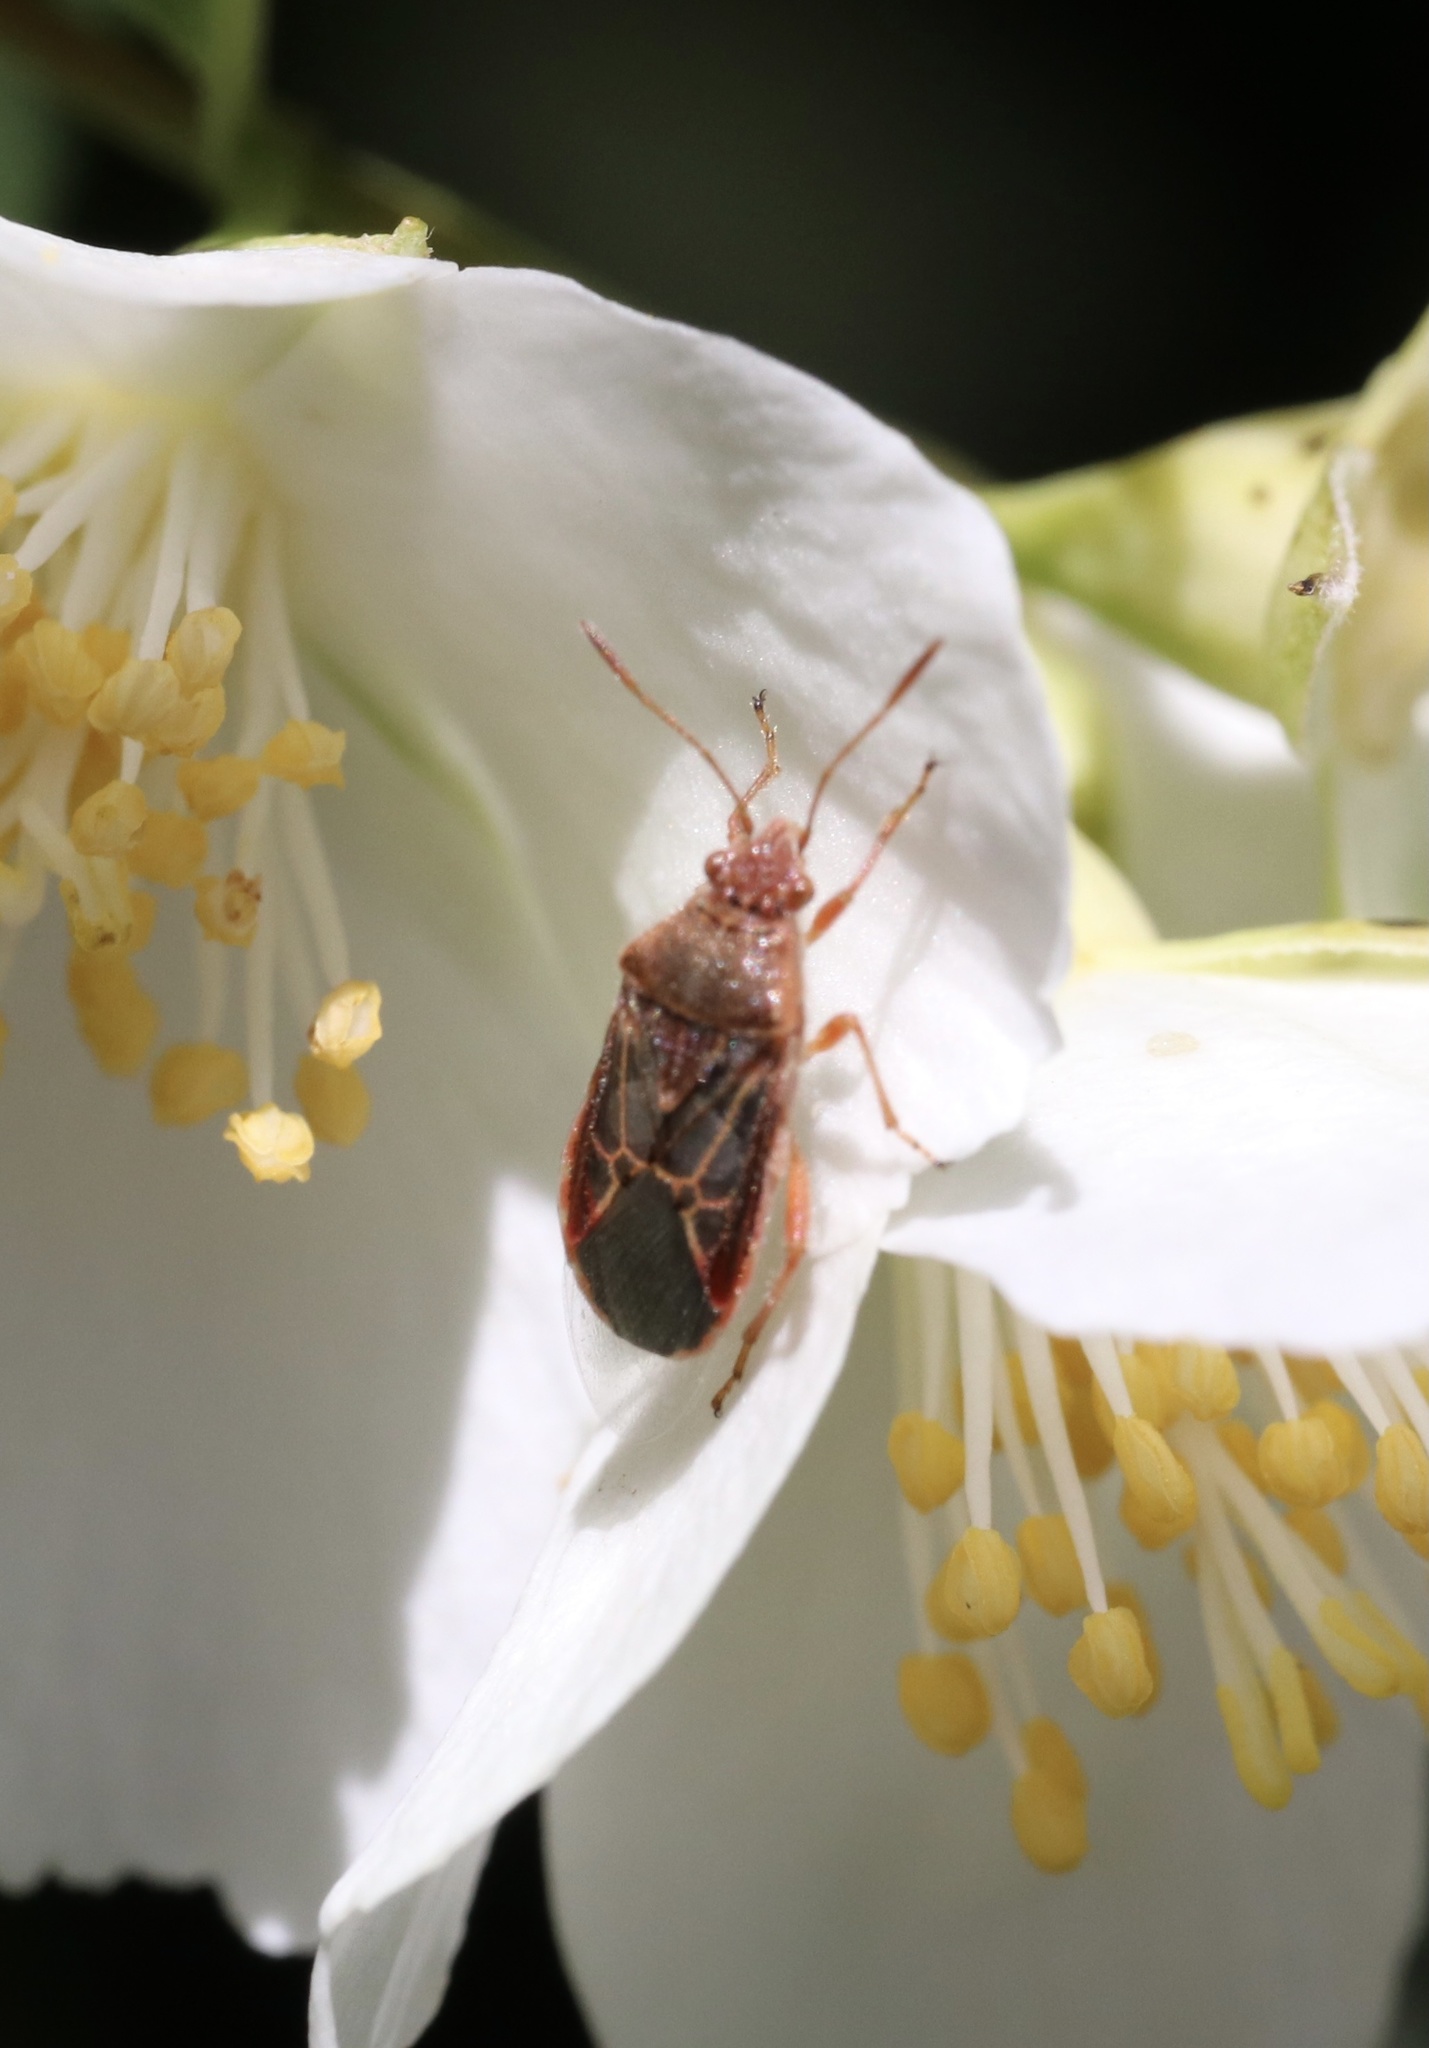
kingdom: Animalia
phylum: Arthropoda
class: Insecta
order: Hemiptera
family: Rhopalidae
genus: Liorhyssus
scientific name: Liorhyssus hyalinus
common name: Scentless plant bug
